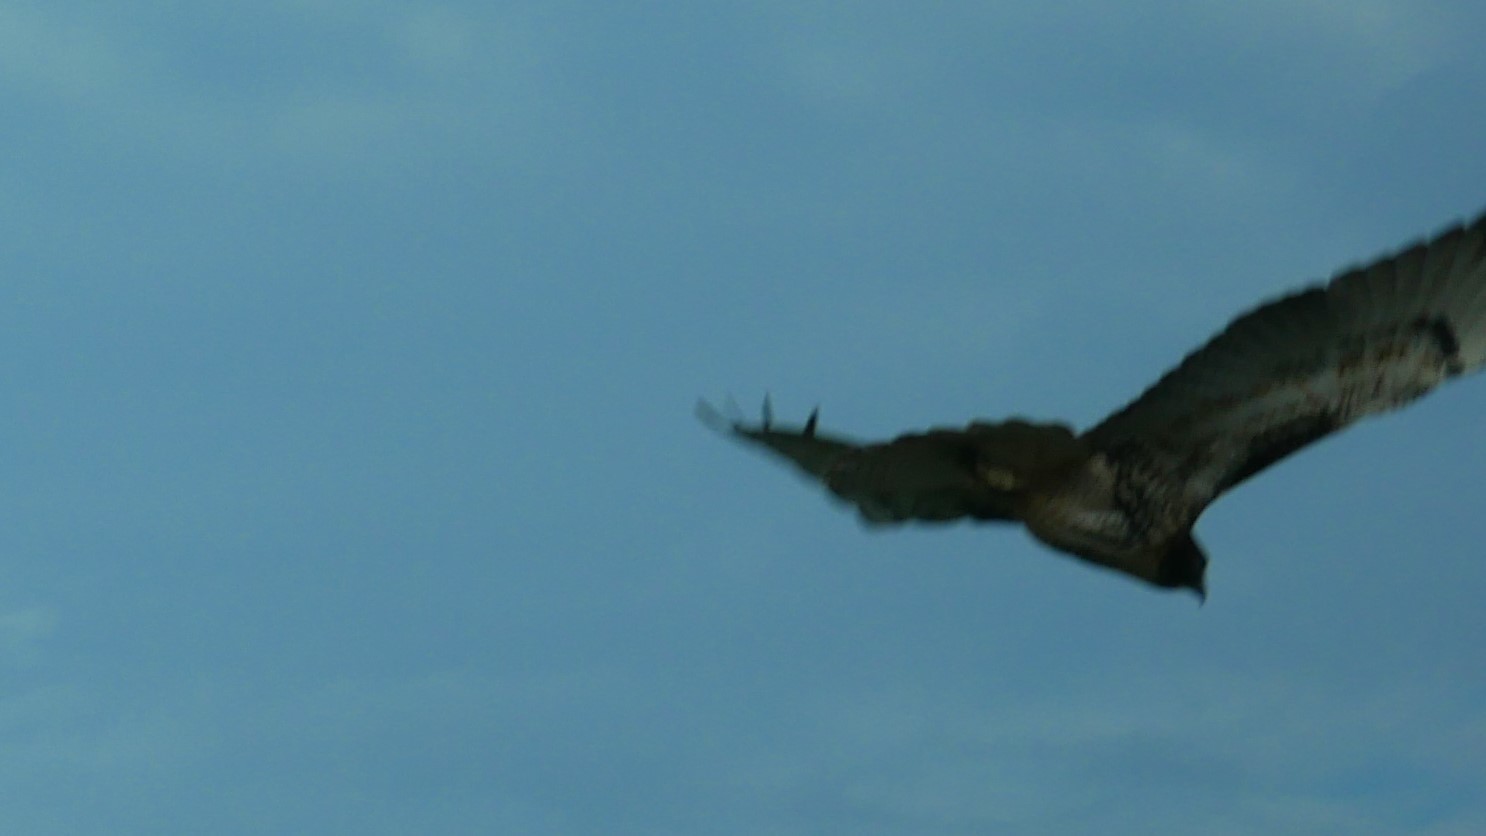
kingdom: Animalia
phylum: Chordata
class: Aves
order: Accipitriformes
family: Accipitridae
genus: Buteo
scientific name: Buteo jamaicensis
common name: Red-tailed hawk
